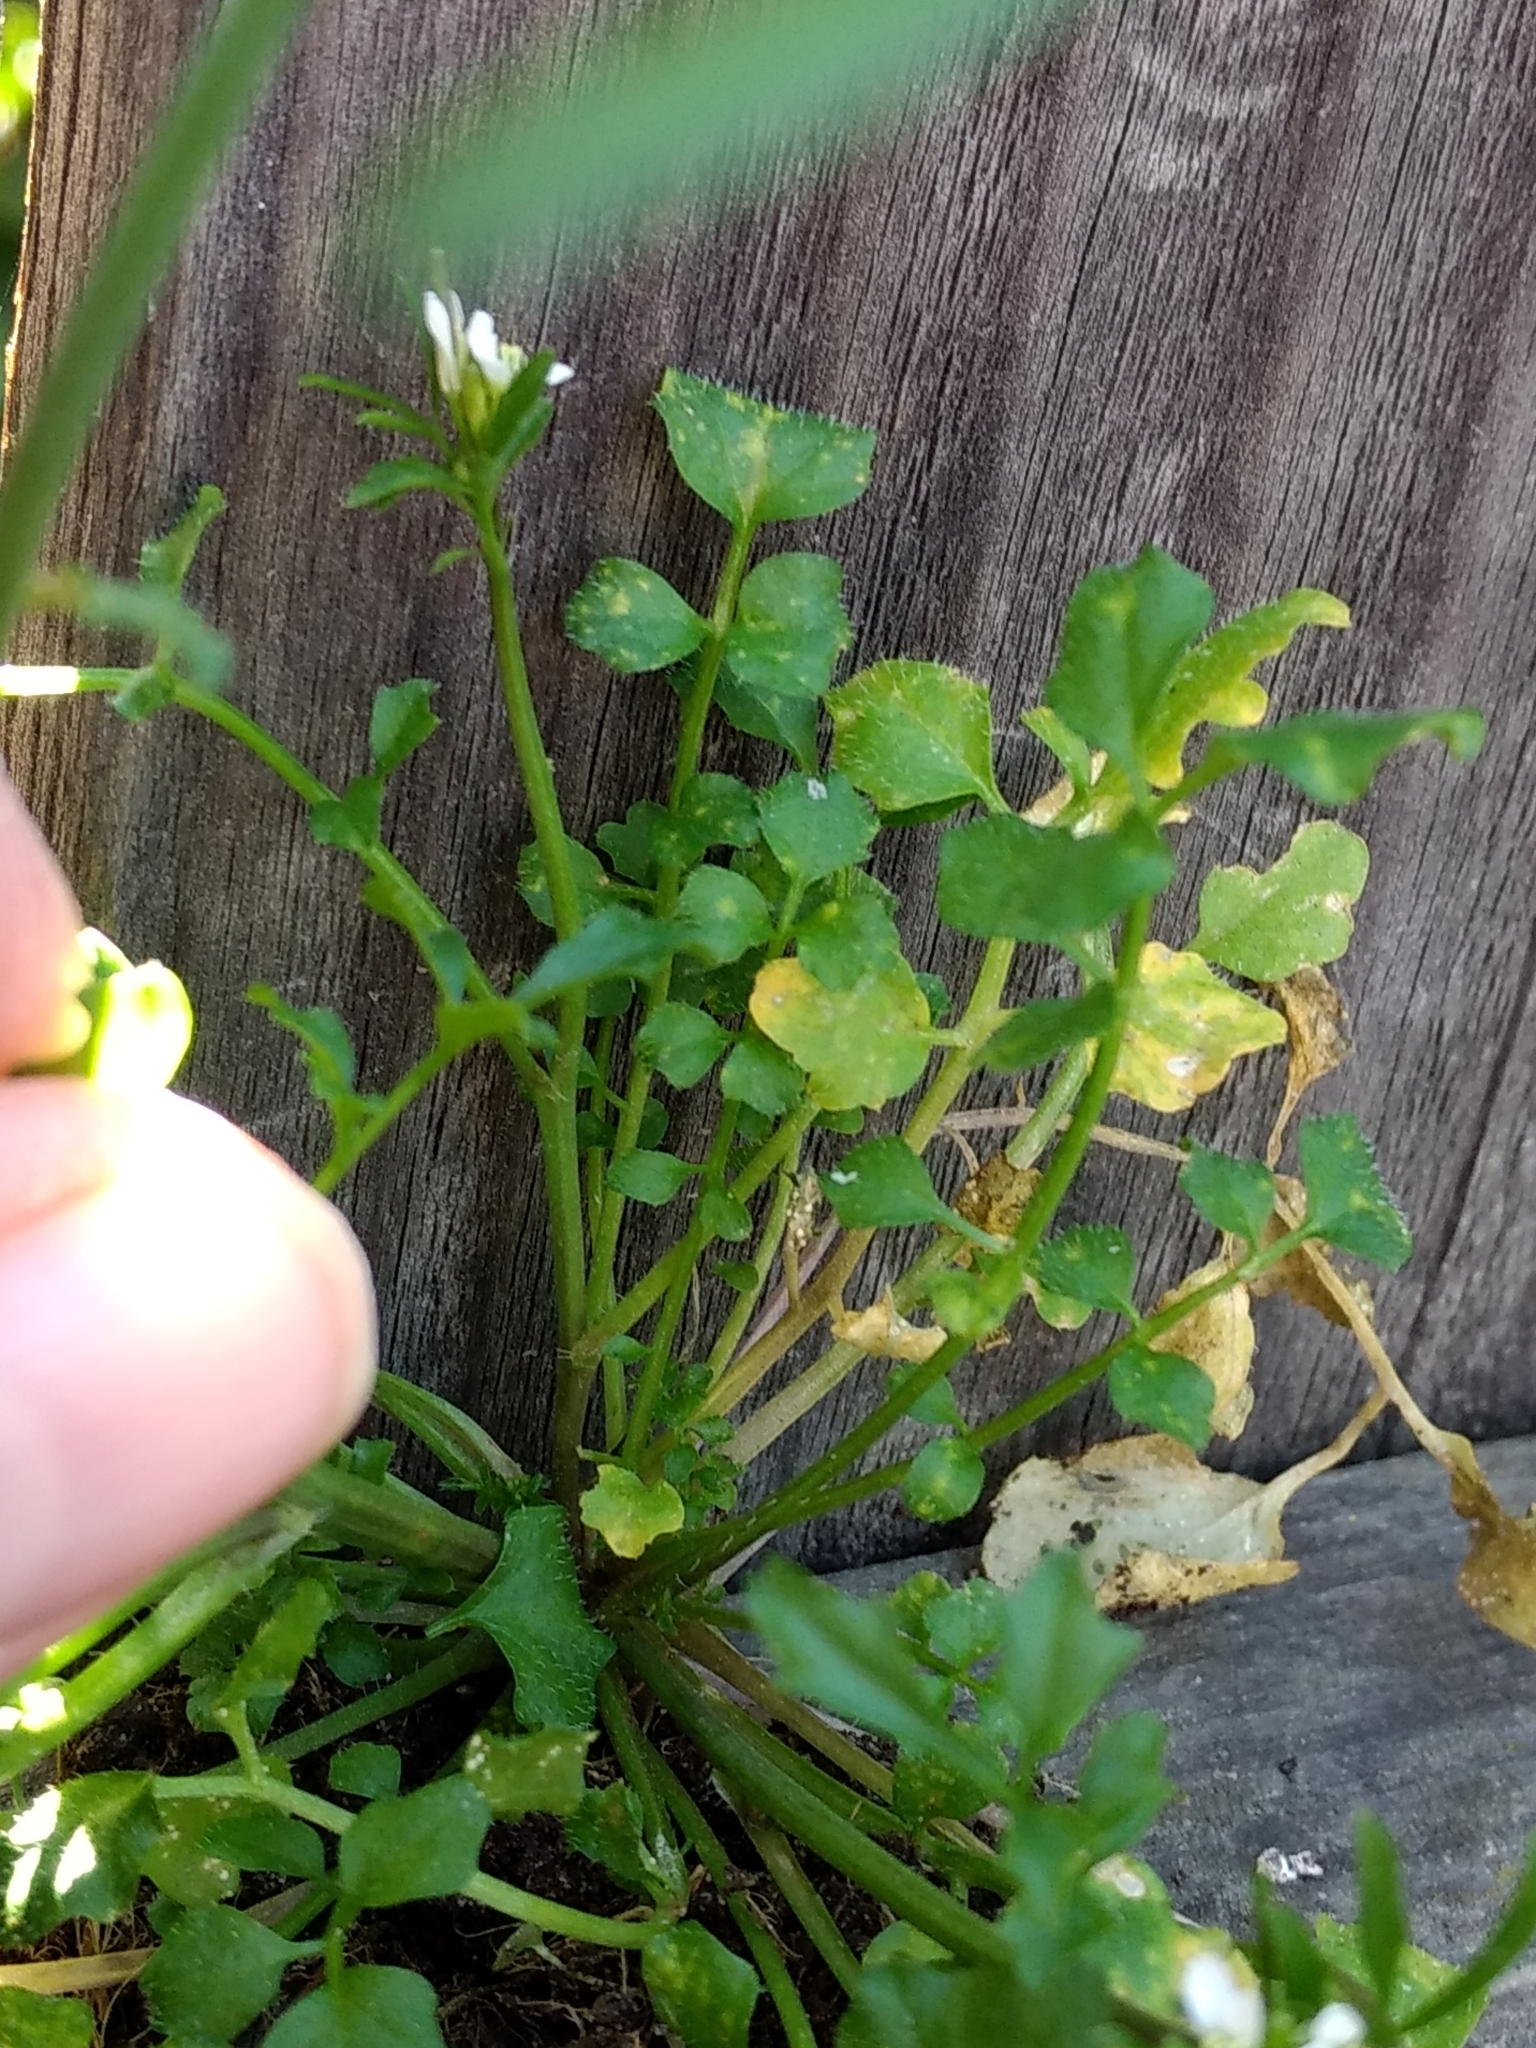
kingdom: Plantae
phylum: Tracheophyta
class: Magnoliopsida
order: Brassicales
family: Brassicaceae
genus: Cardamine
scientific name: Cardamine hirsuta
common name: Hairy bittercress
